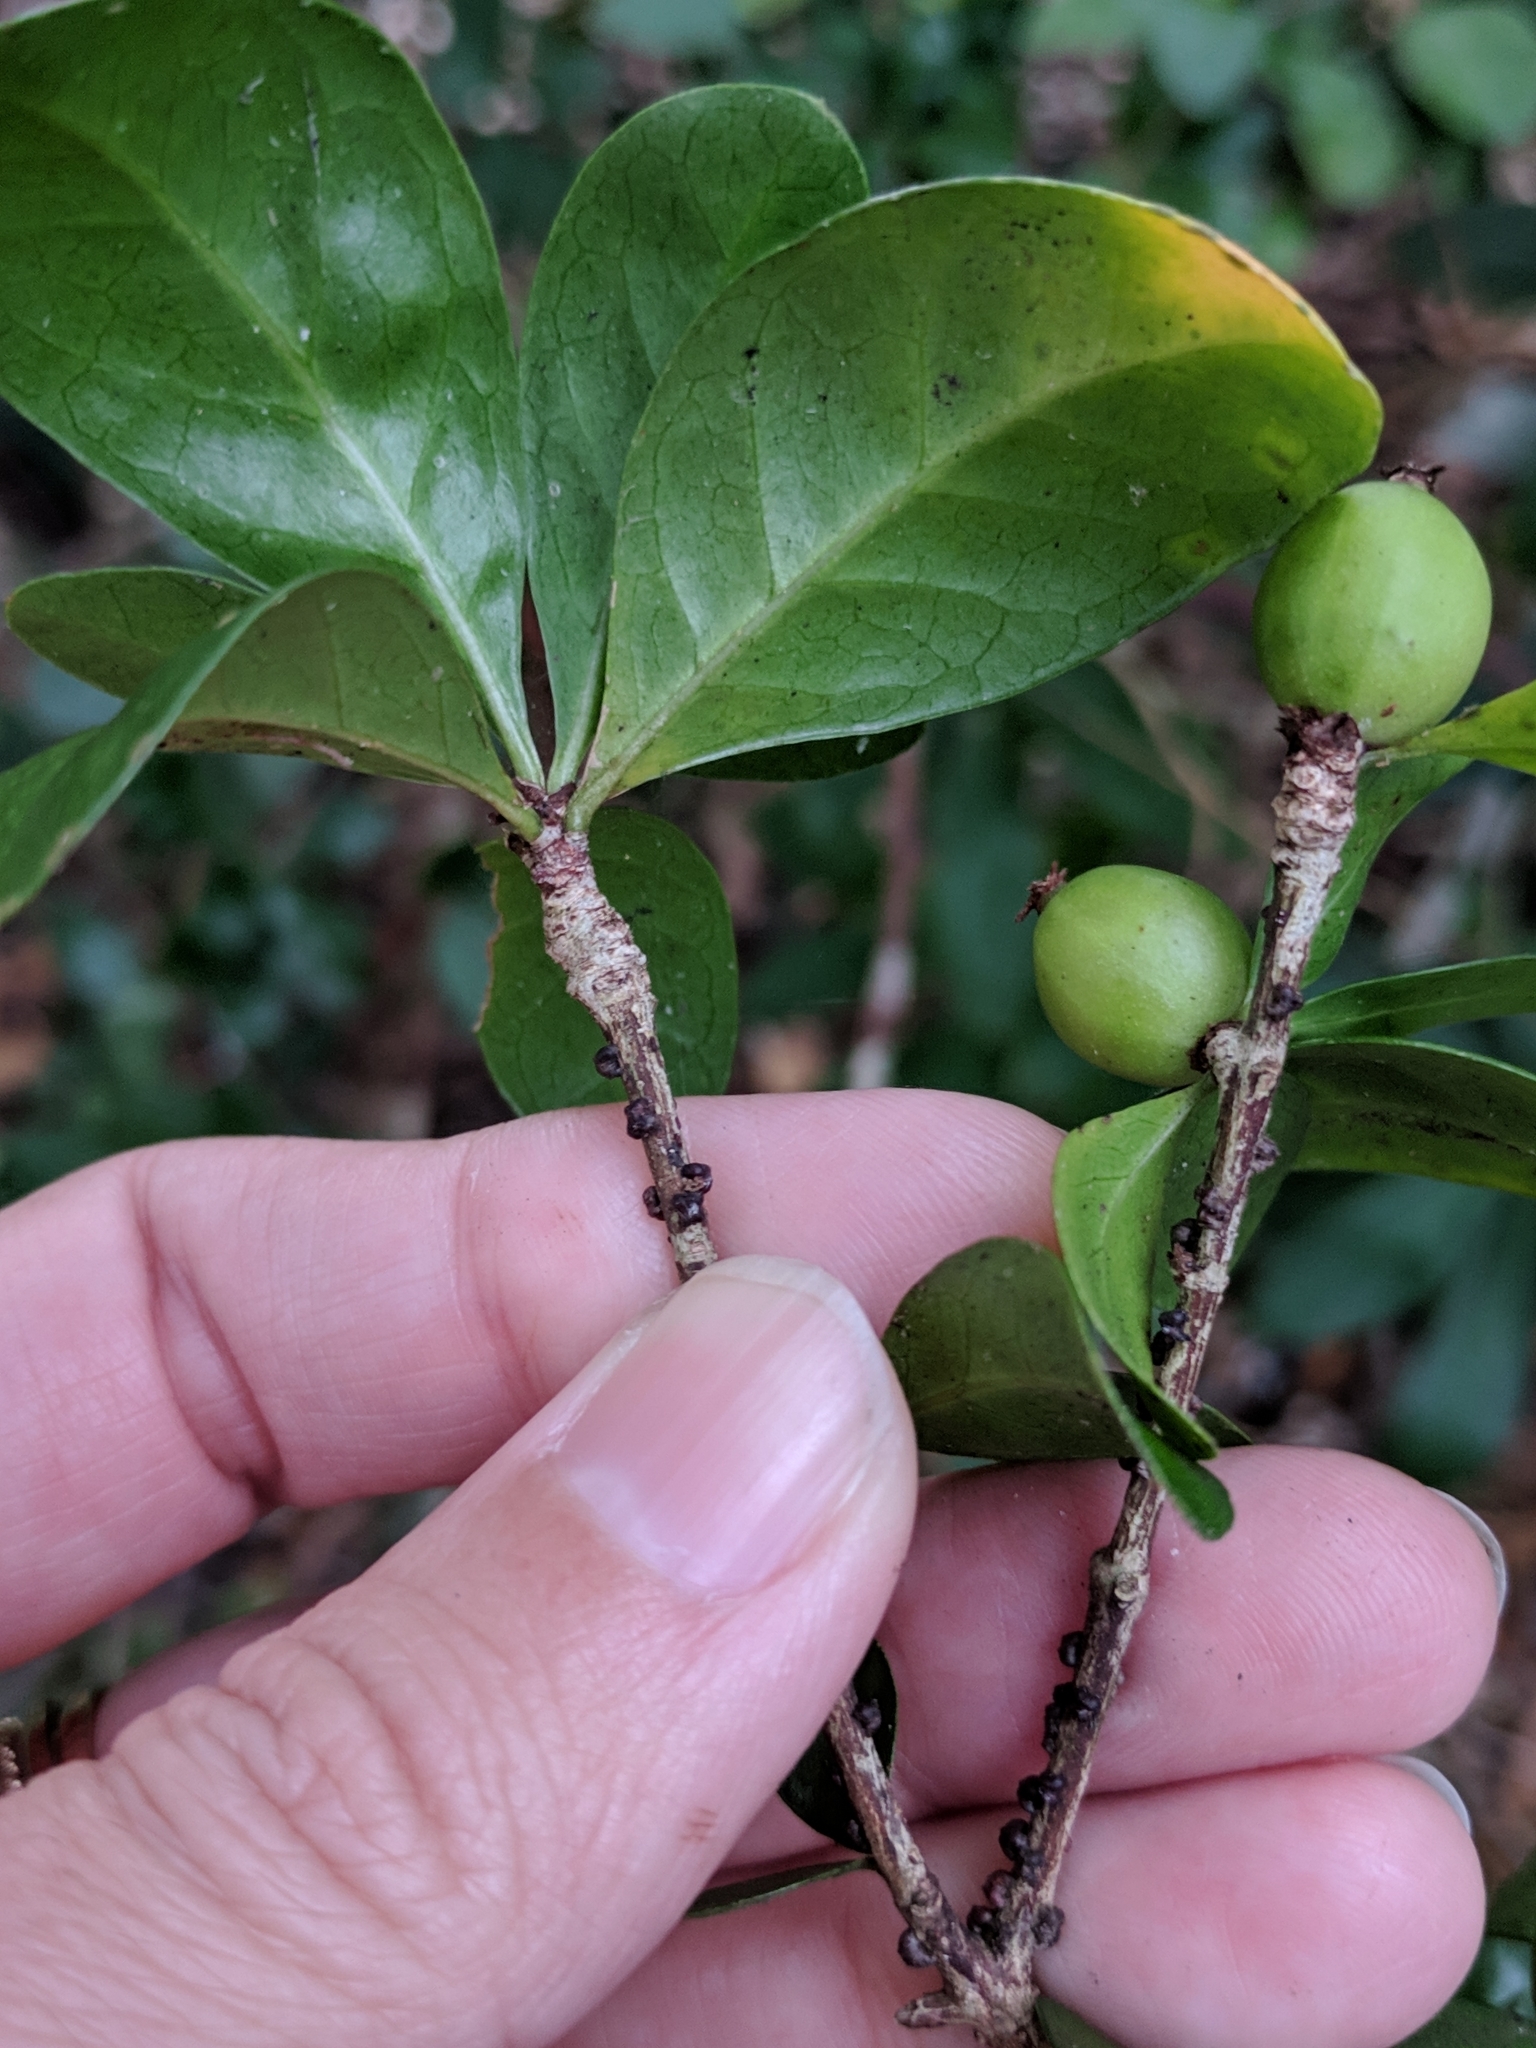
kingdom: Plantae
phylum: Tracheophyta
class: Magnoliopsida
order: Gentianales
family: Rubiaceae
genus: Randia
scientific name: Randia aculeata
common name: Inkberry
